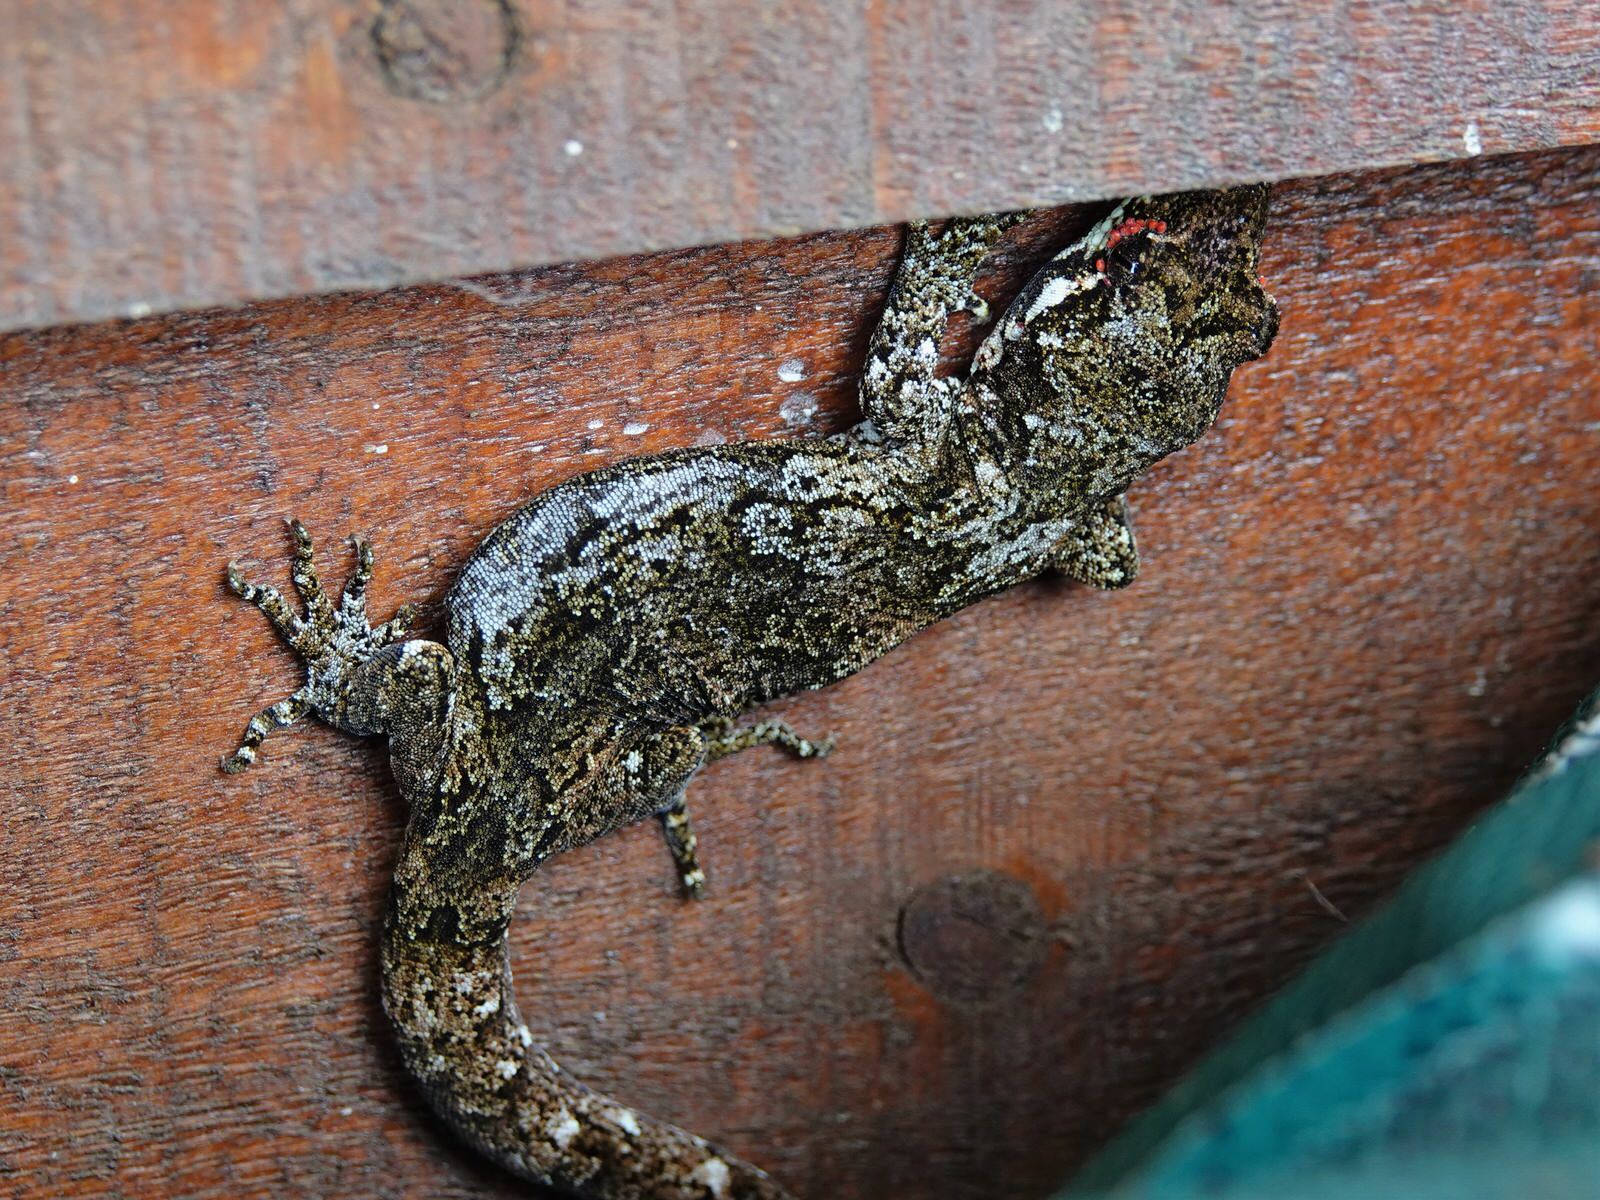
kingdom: Animalia
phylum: Arthropoda
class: Arachnida
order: Trombidiformes
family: Pterygosomatidae
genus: Geckobia
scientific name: Geckobia
